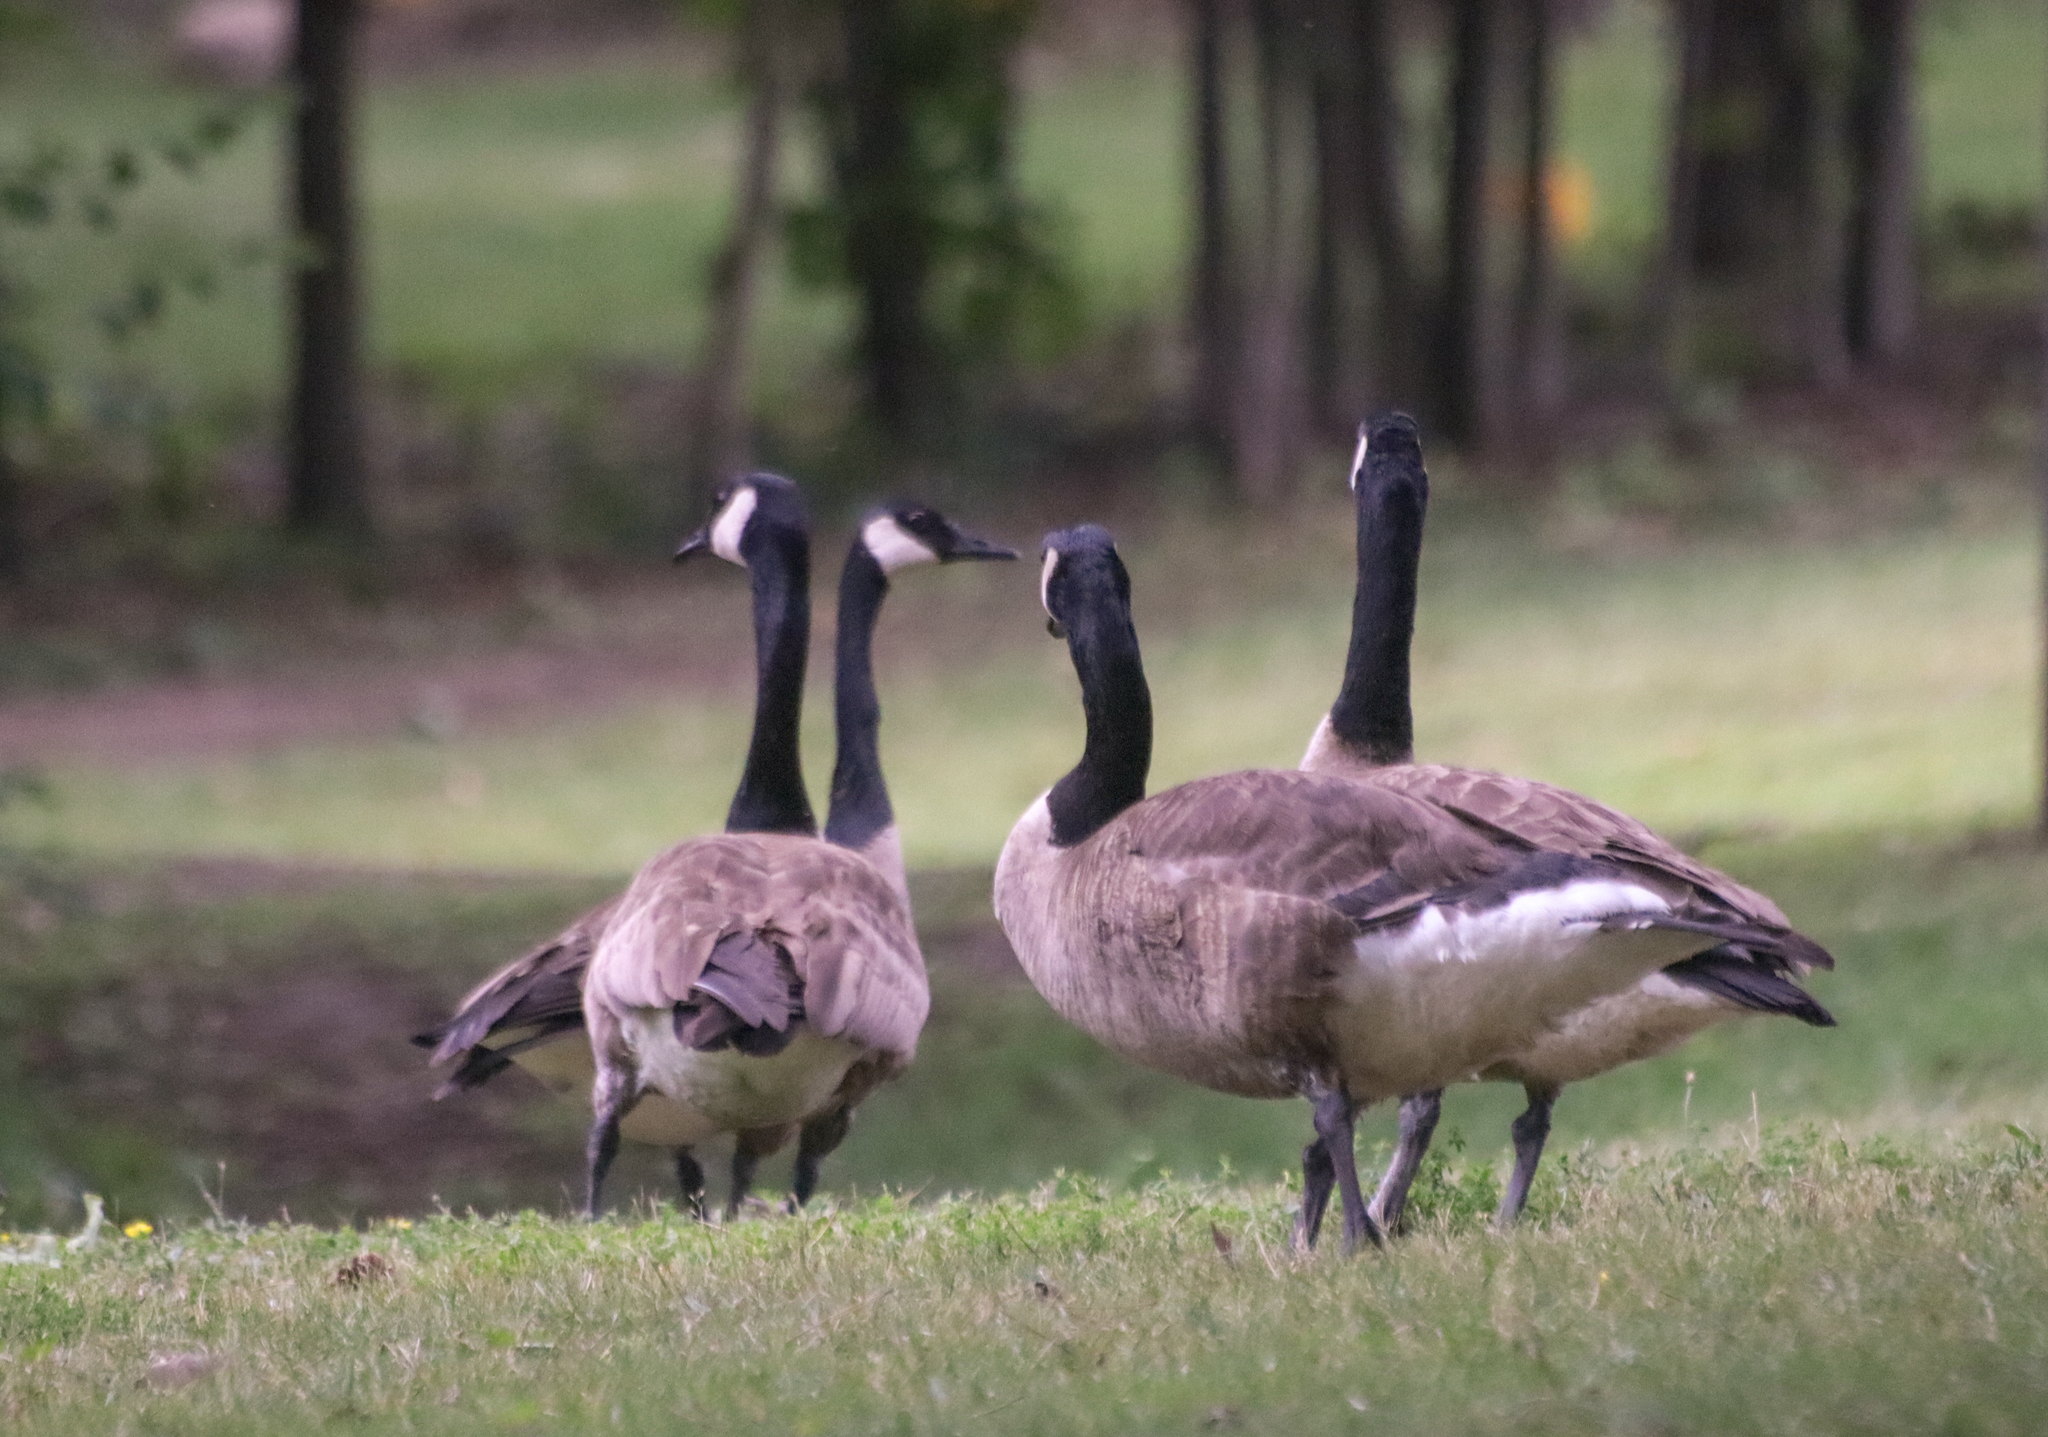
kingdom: Animalia
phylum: Chordata
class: Aves
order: Anseriformes
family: Anatidae
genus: Branta
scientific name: Branta canadensis
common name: Canada goose
